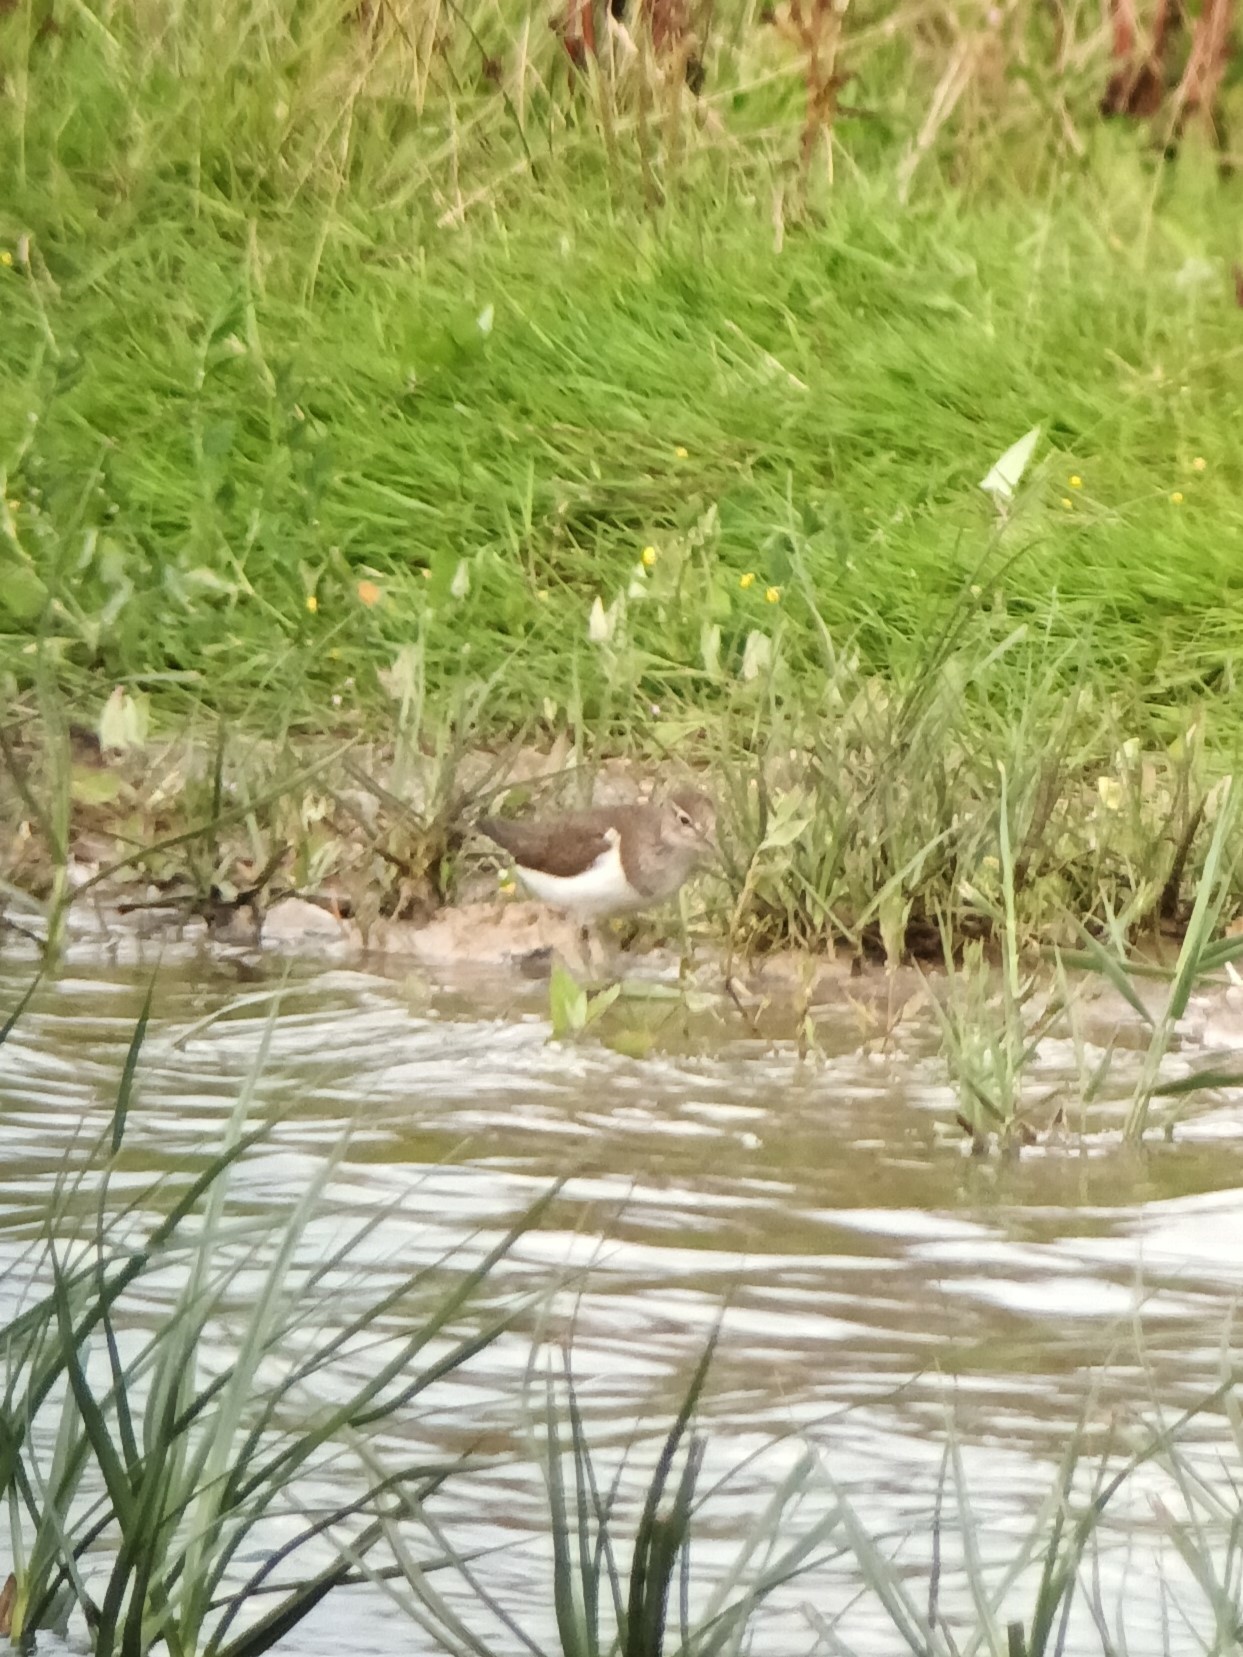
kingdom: Animalia
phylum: Chordata
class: Aves
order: Charadriiformes
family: Scolopacidae
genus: Actitis
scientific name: Actitis hypoleucos
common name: Common sandpiper
